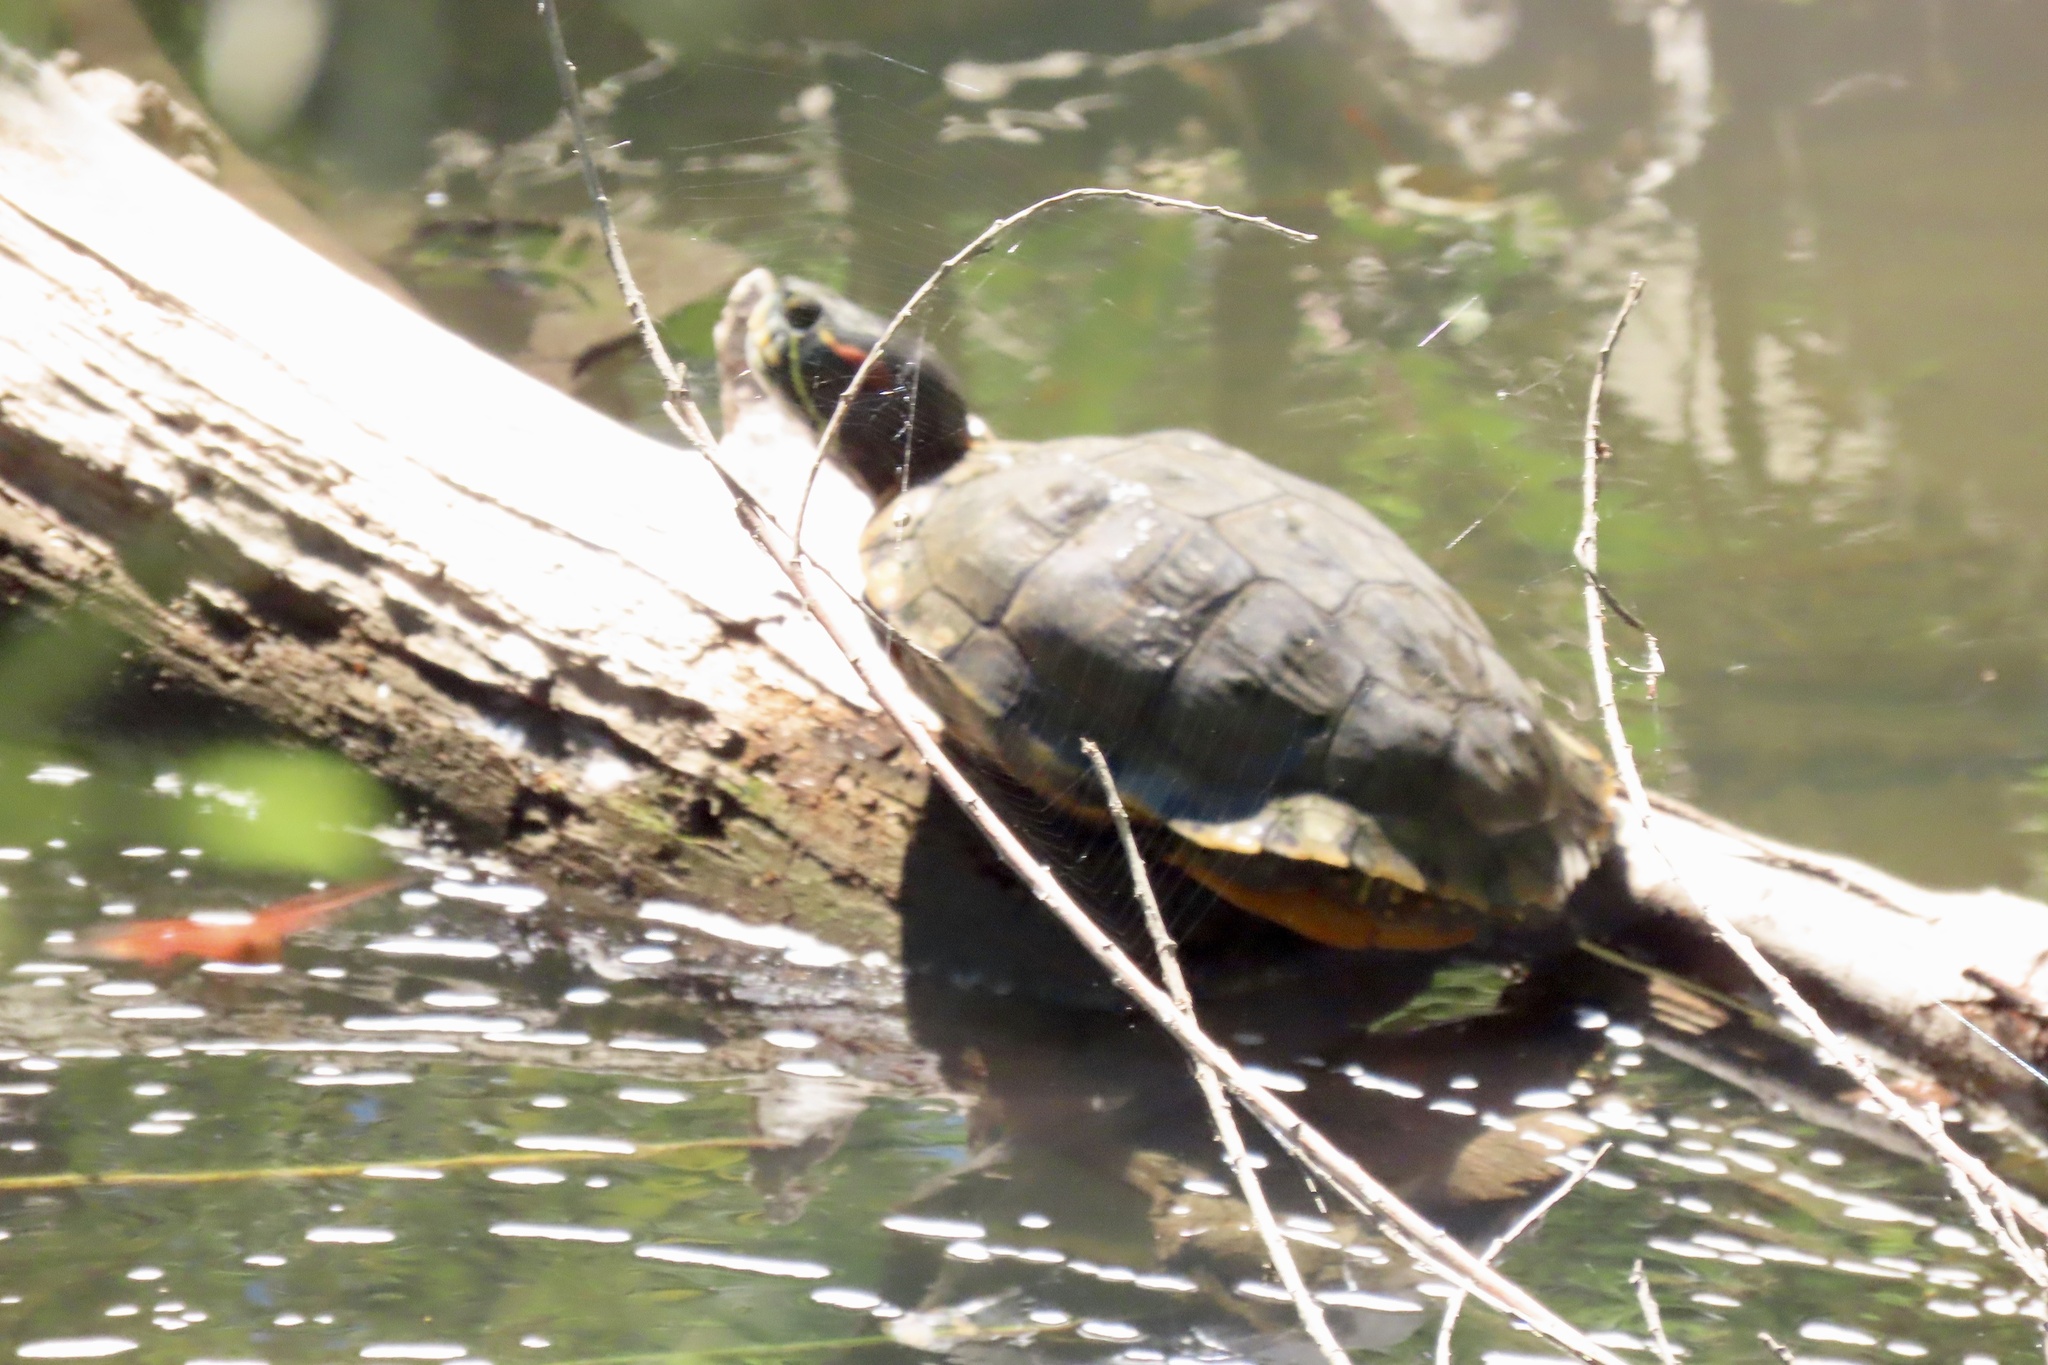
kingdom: Animalia
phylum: Chordata
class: Testudines
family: Emydidae
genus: Trachemys
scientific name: Trachemys scripta
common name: Slider
